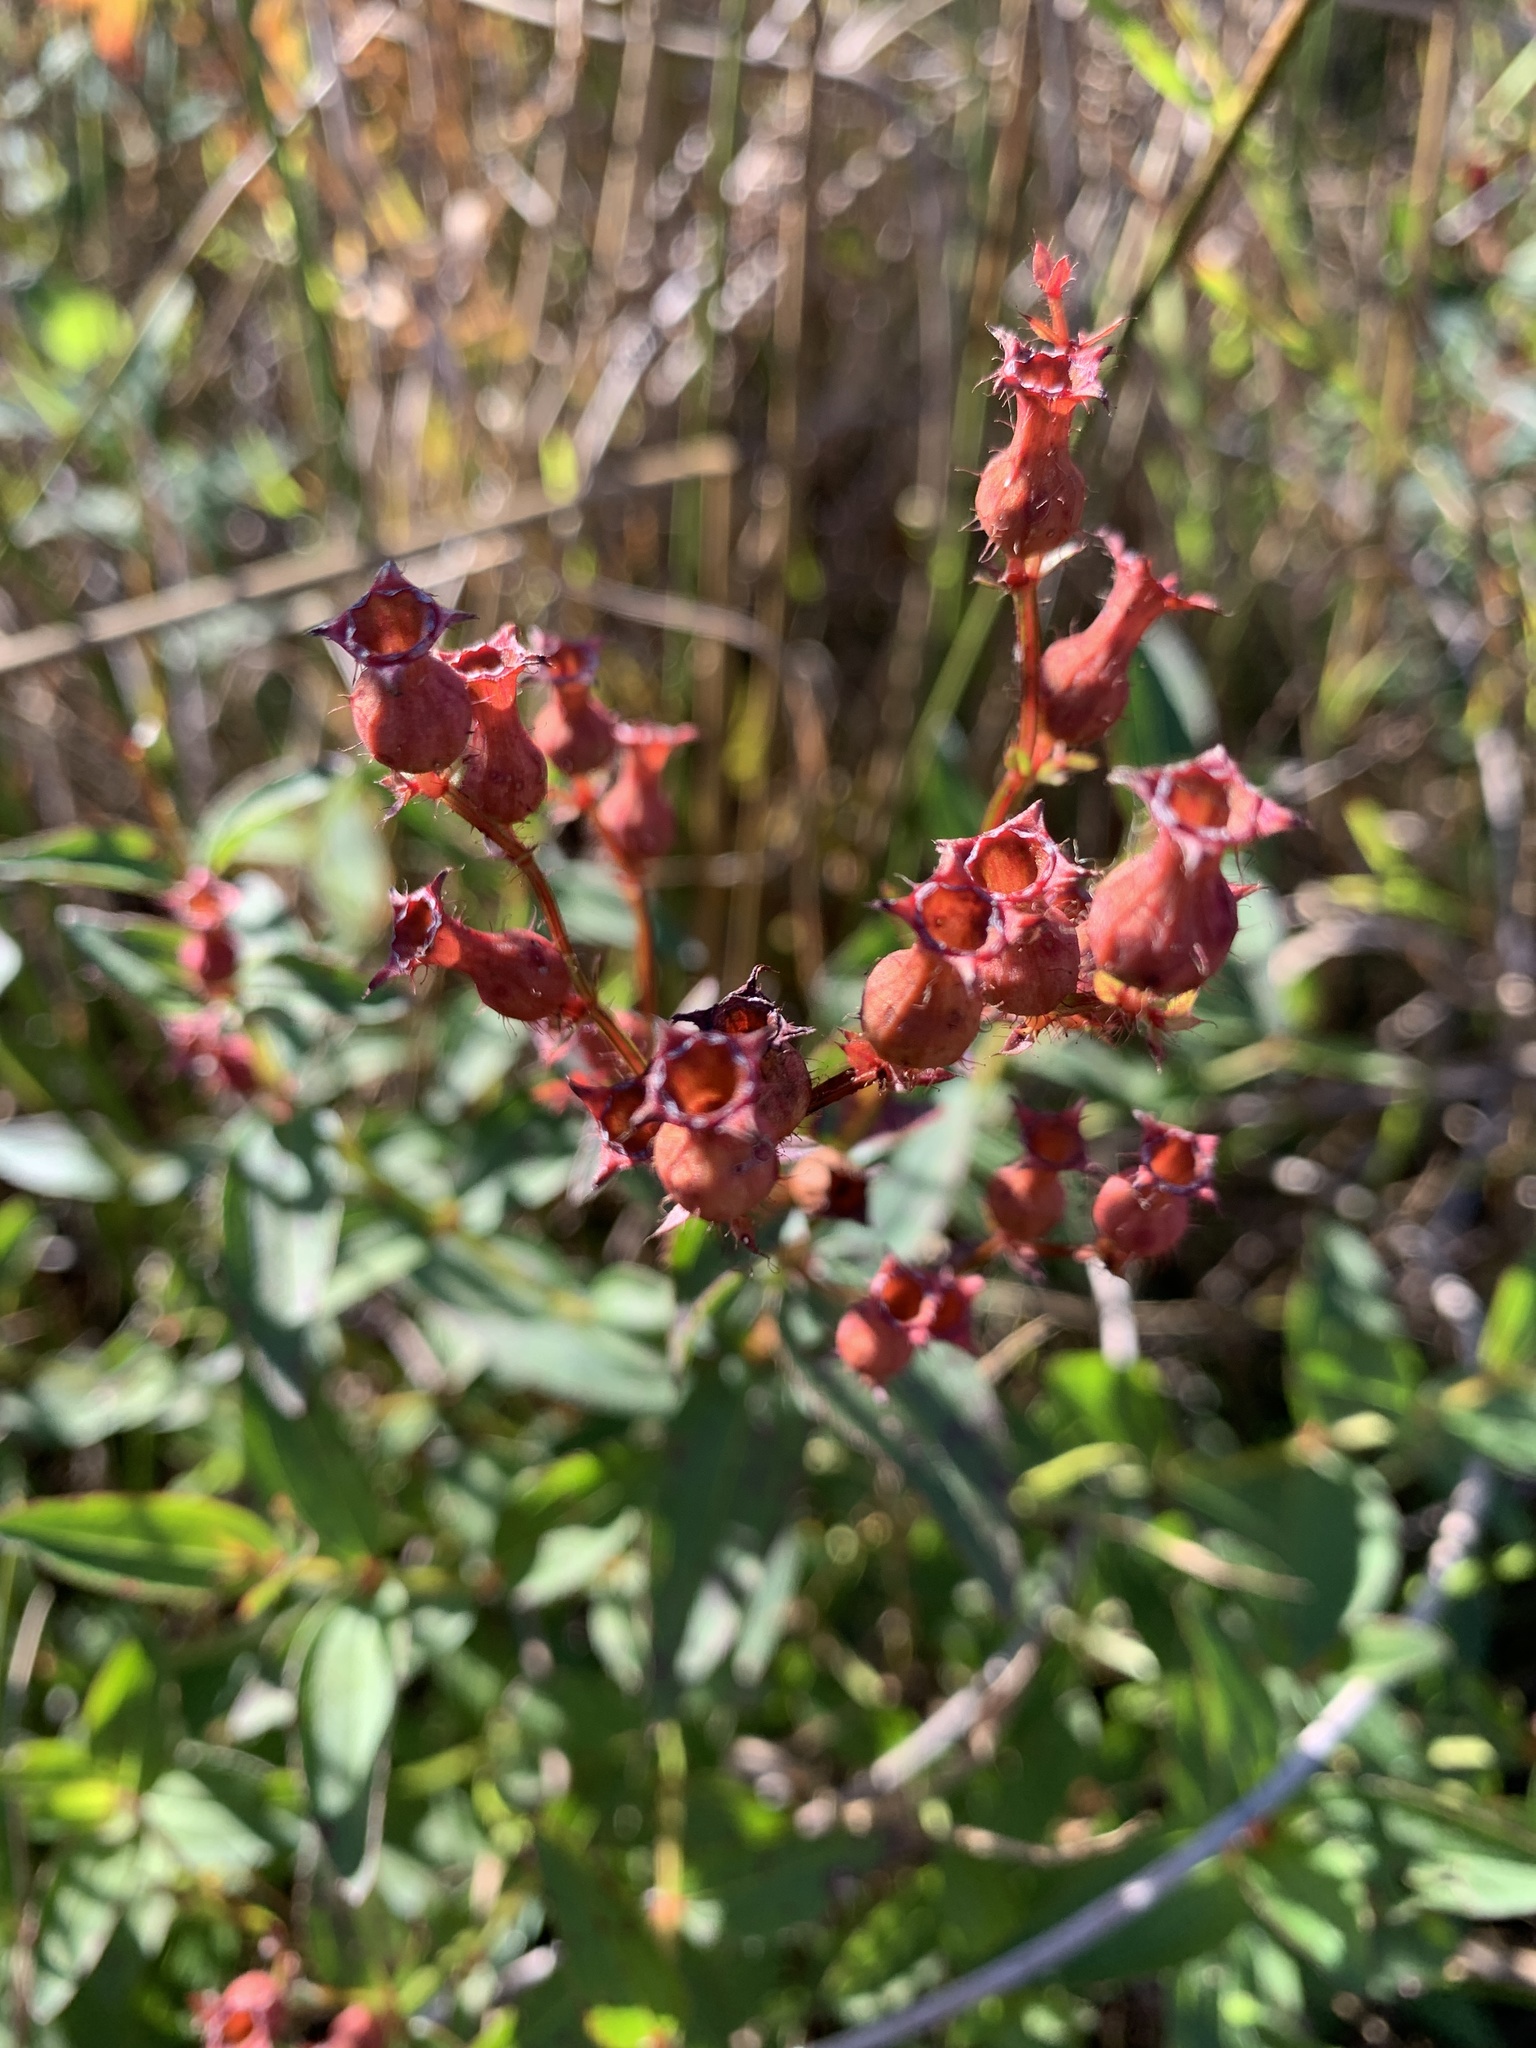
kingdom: Plantae
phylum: Tracheophyta
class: Magnoliopsida
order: Myrtales
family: Melastomataceae
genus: Rhexia
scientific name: Rhexia virginica
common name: Common meadow beauty
